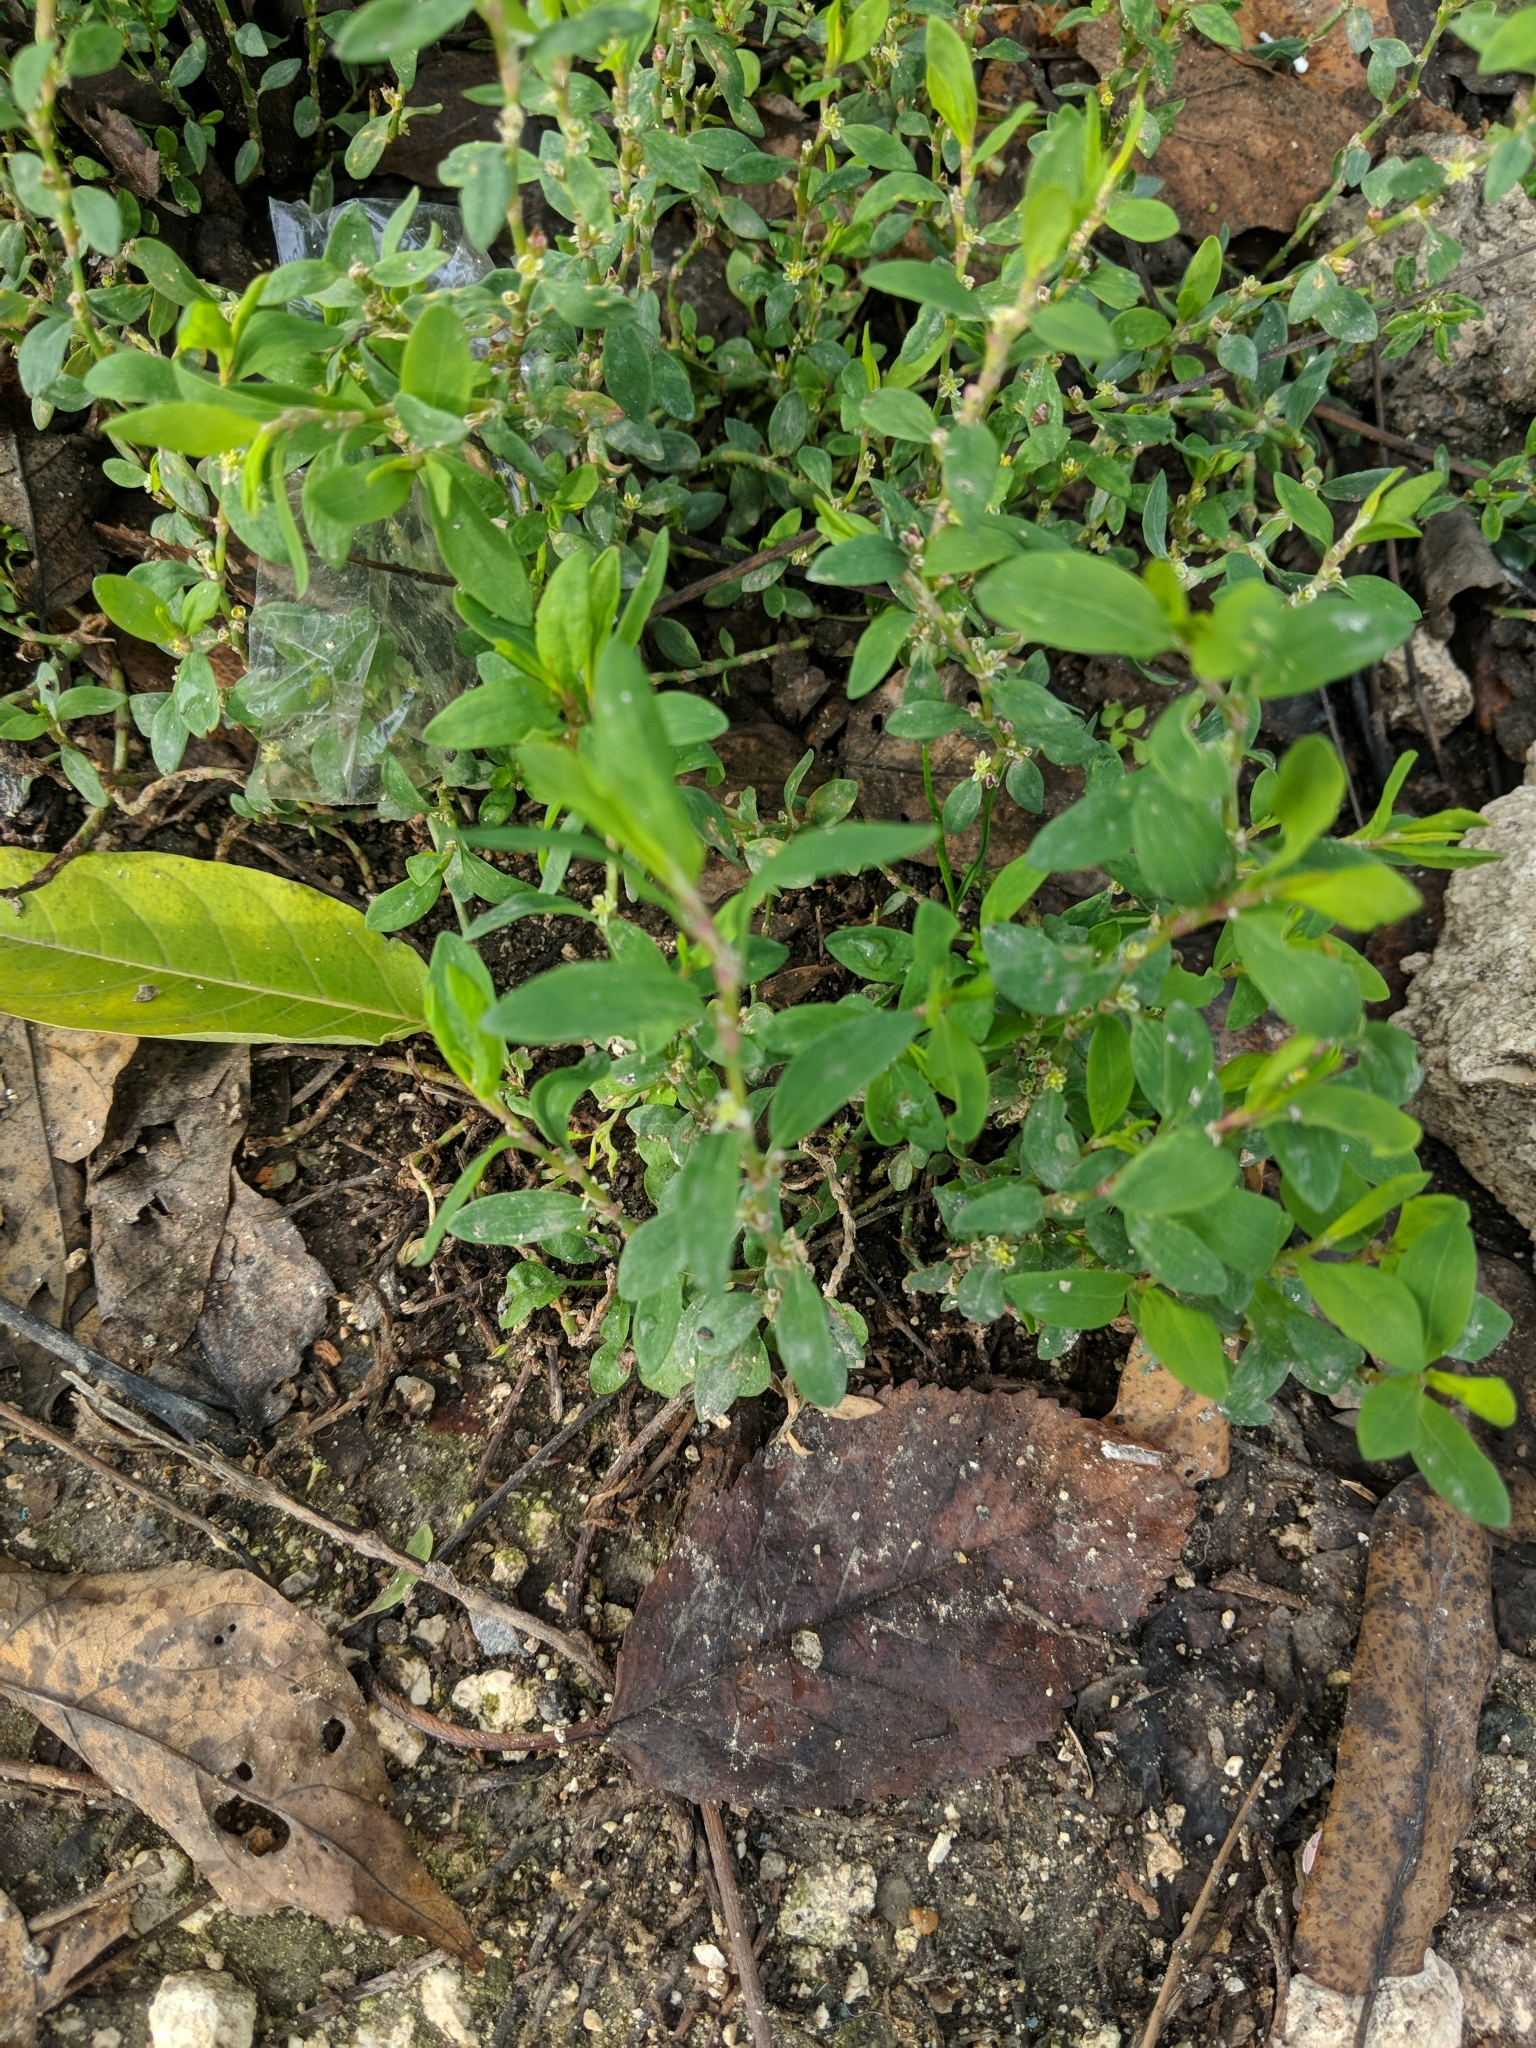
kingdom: Plantae
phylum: Tracheophyta
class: Magnoliopsida
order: Caryophyllales
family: Polygonaceae
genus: Polygonum
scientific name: Polygonum
